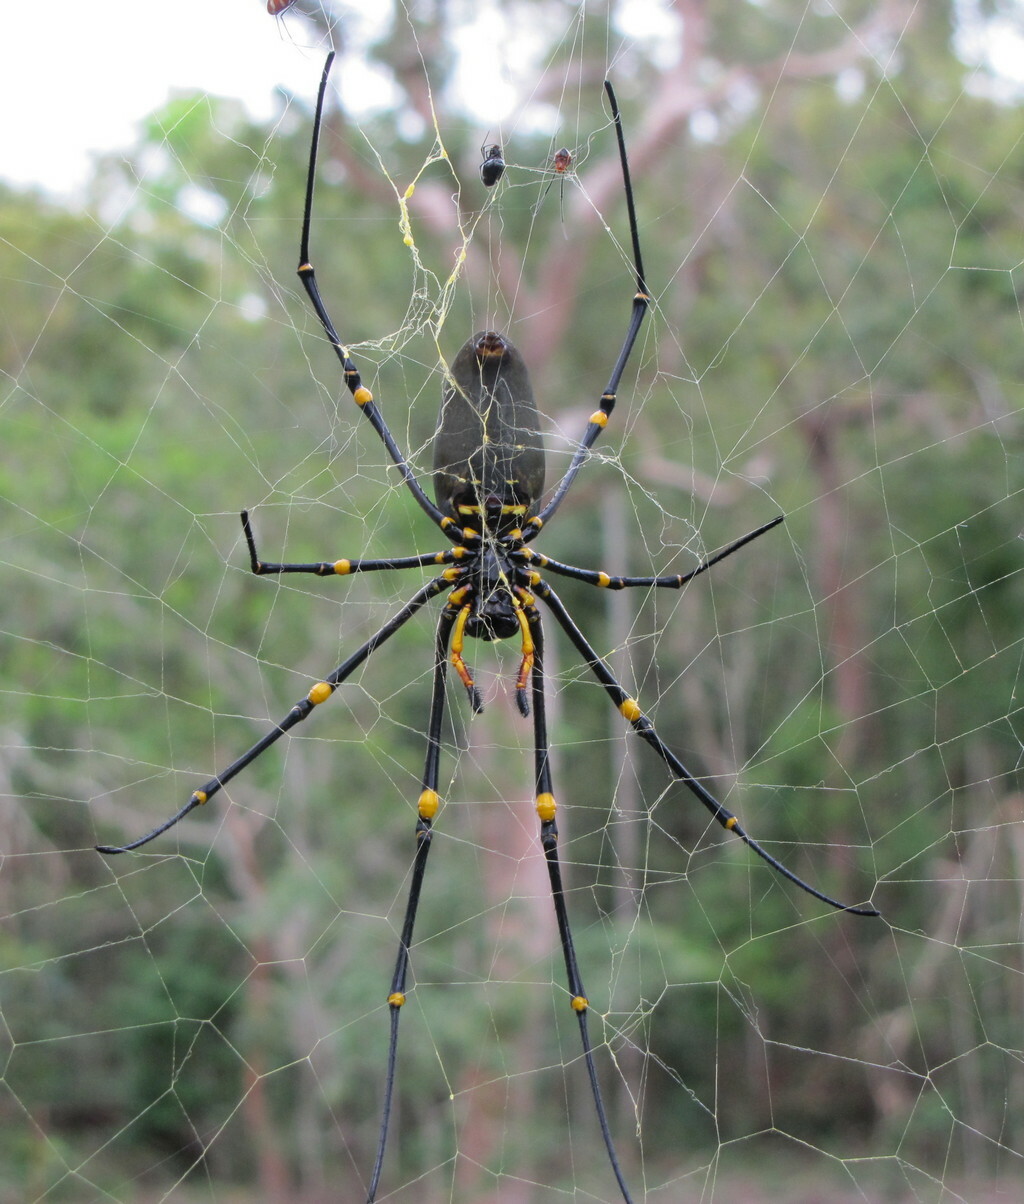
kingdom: Animalia
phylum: Arthropoda
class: Arachnida
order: Araneae
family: Araneidae
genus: Nephila
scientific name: Nephila pilipes
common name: Giant golden orb weaver
